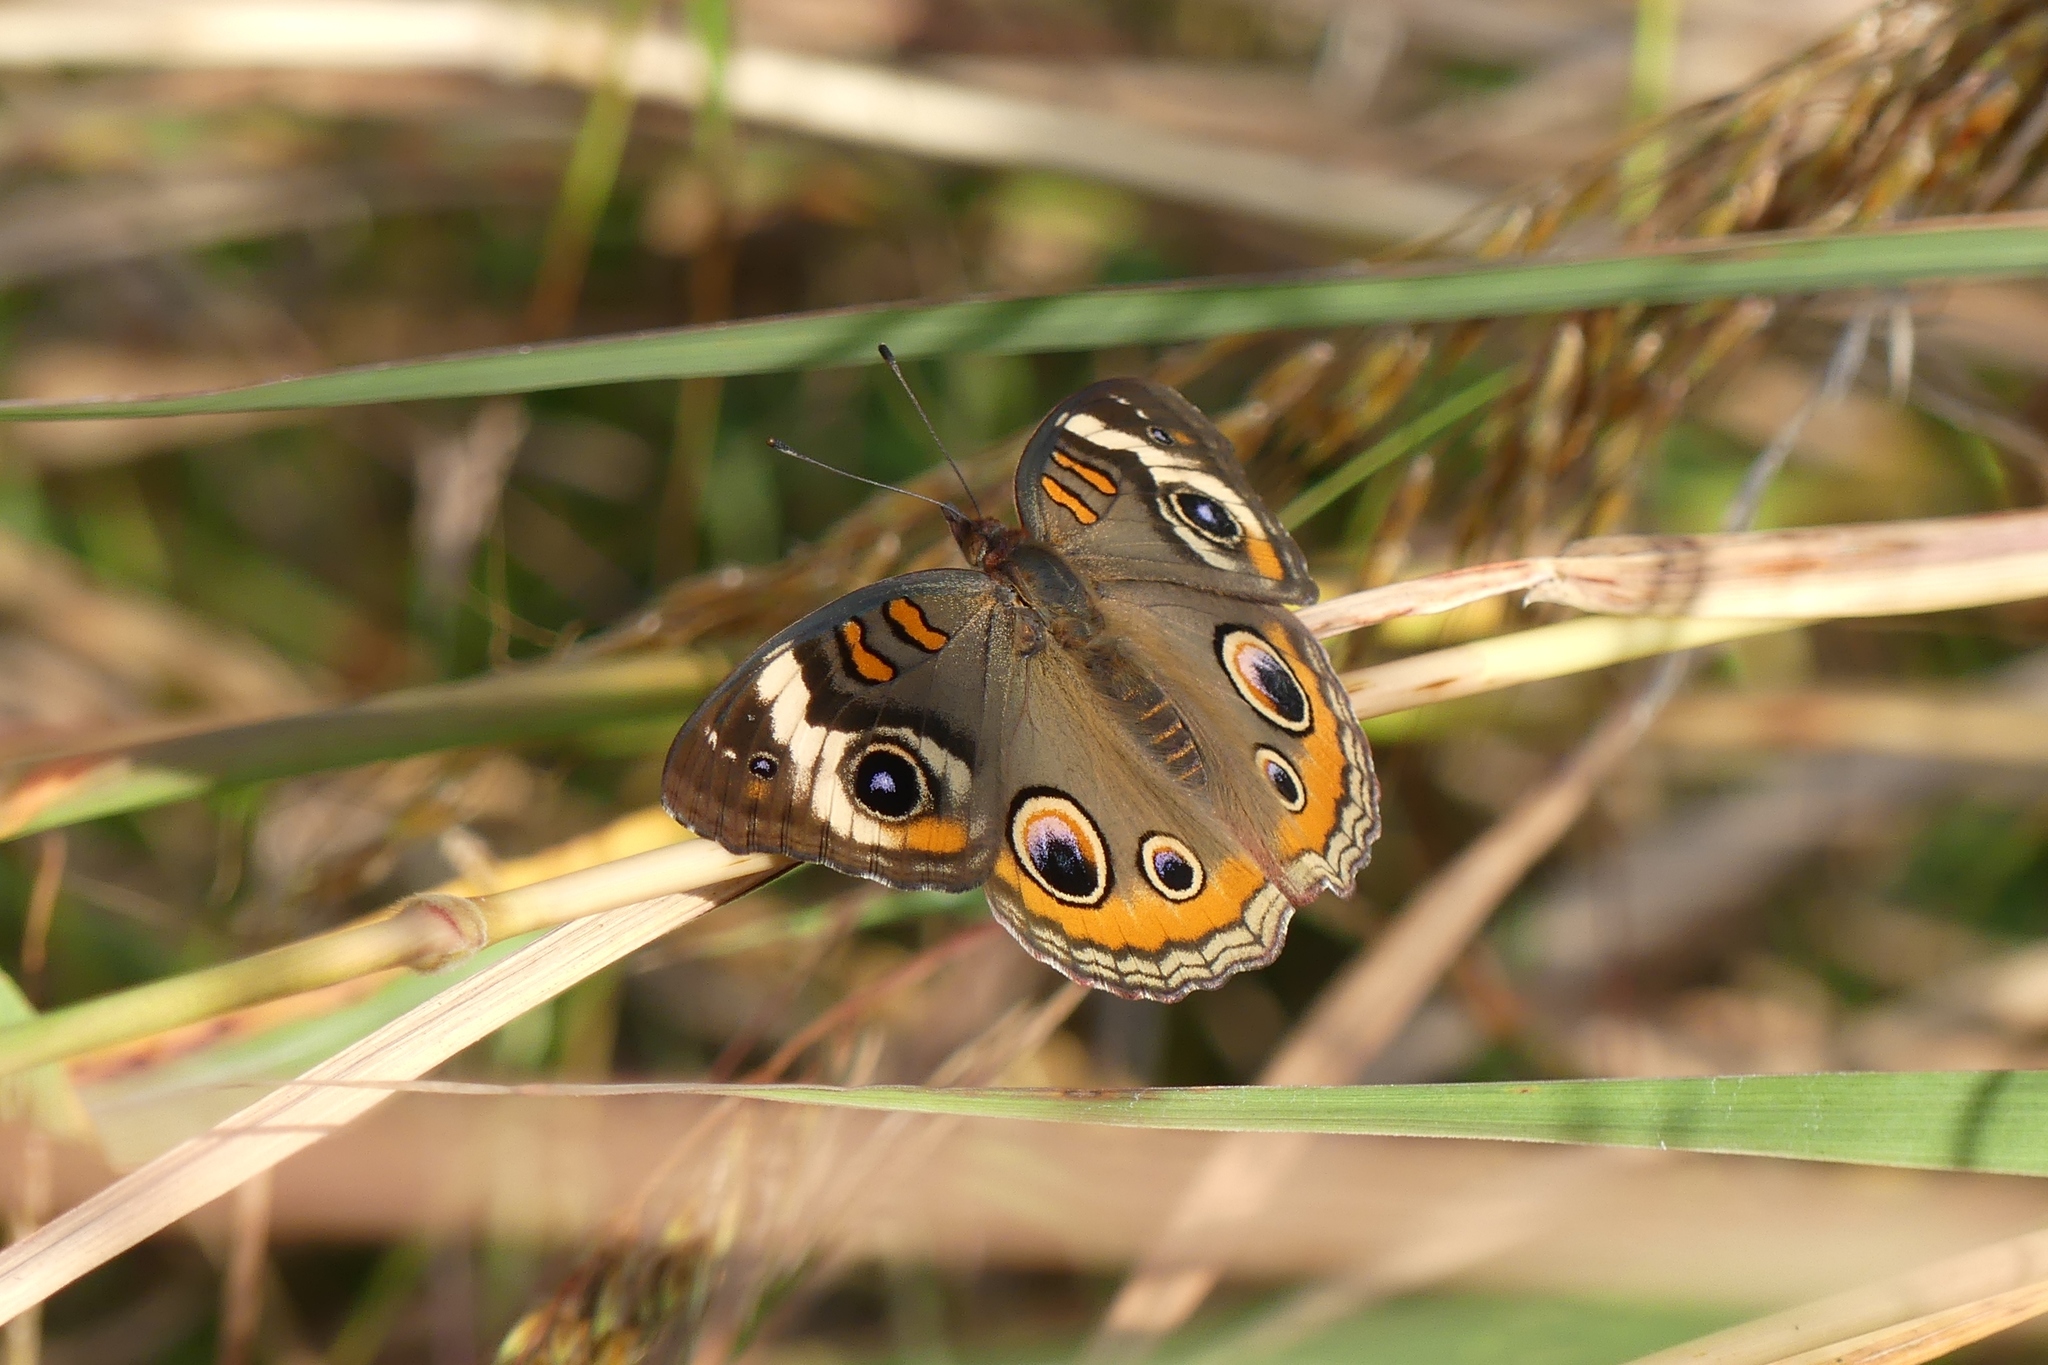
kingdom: Animalia
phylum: Arthropoda
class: Insecta
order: Lepidoptera
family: Nymphalidae
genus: Junonia
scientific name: Junonia coenia
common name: Common buckeye
